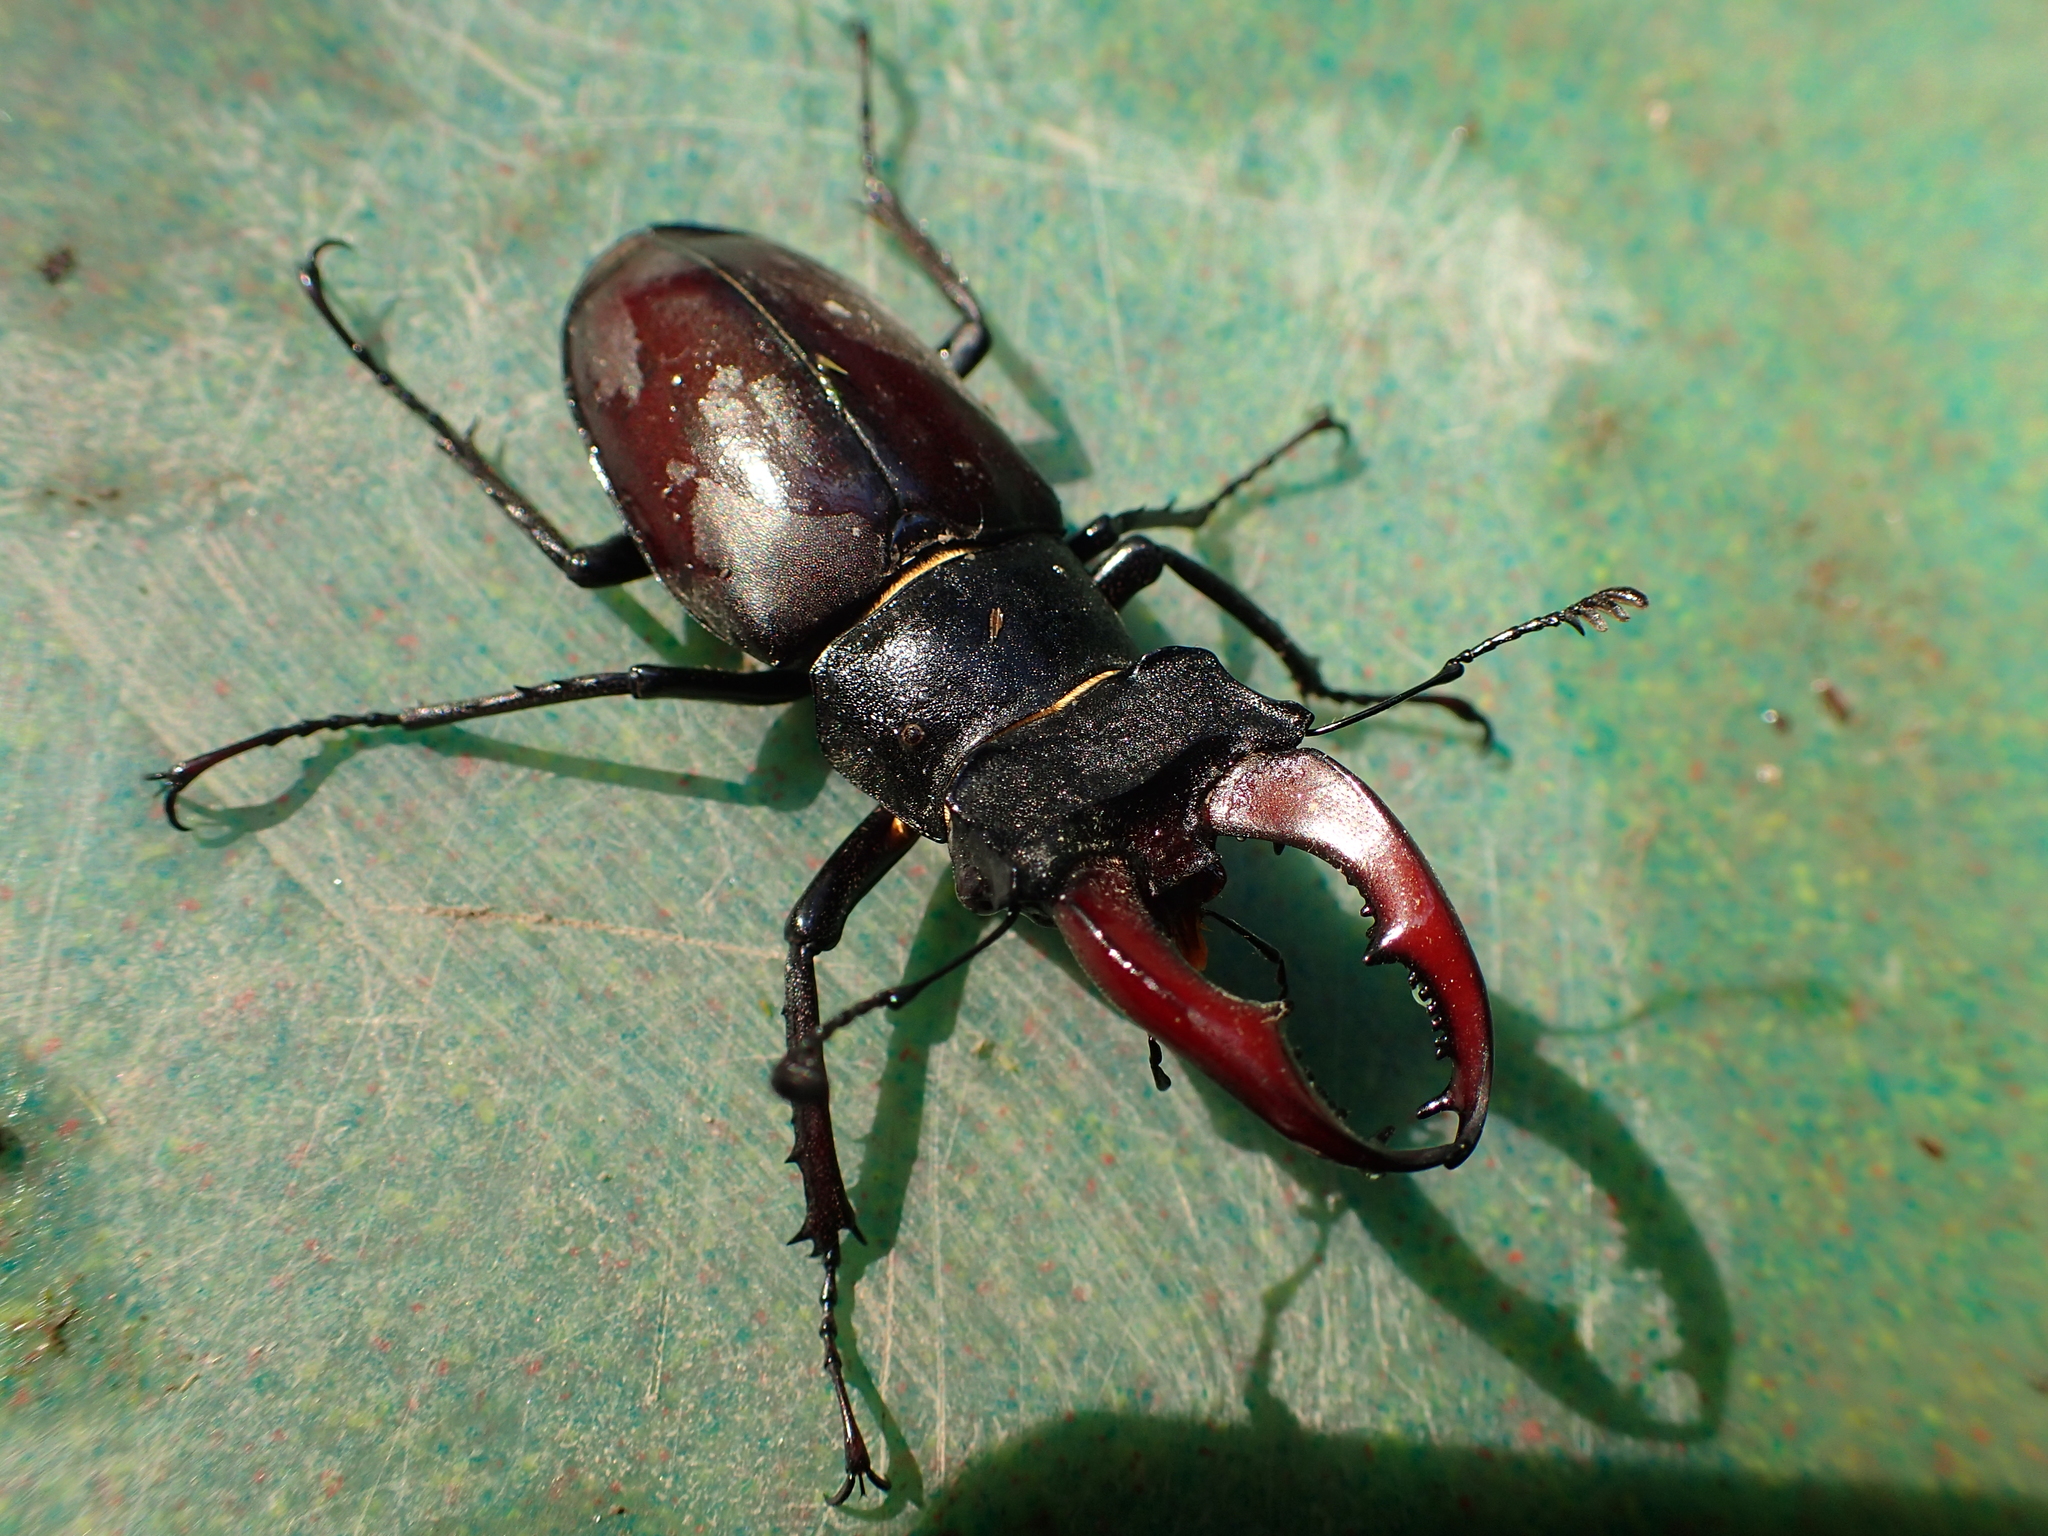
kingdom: Animalia
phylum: Arthropoda
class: Insecta
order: Coleoptera
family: Lucanidae
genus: Lucanus
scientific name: Lucanus cervus
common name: Stag beetle
